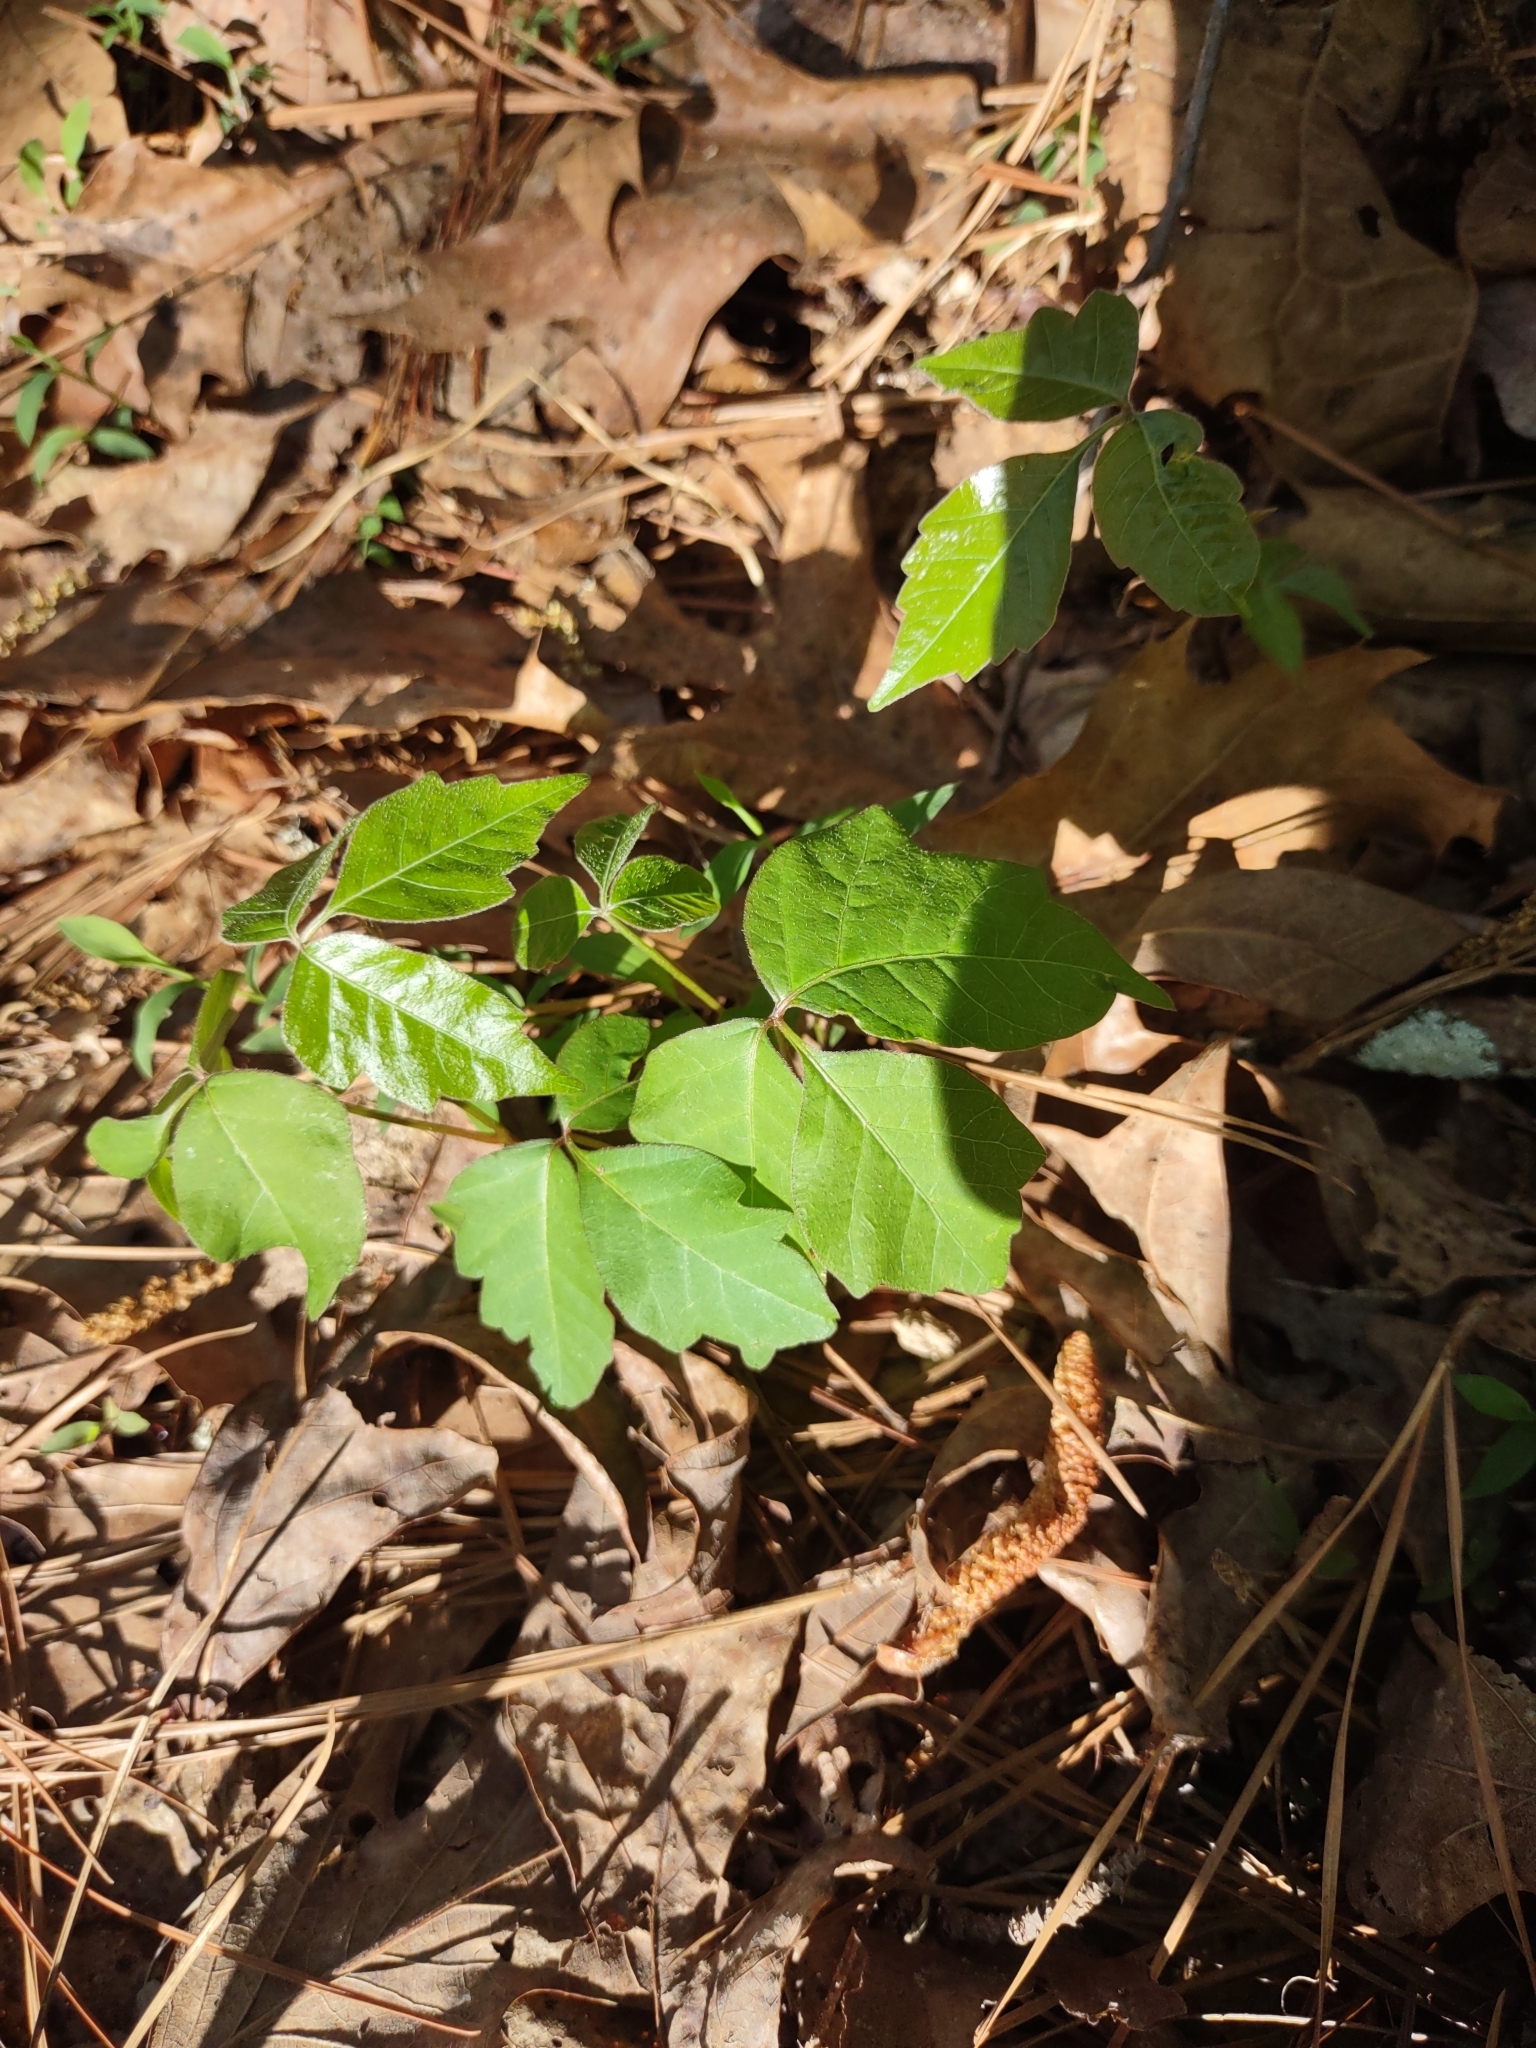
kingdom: Plantae
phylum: Tracheophyta
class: Magnoliopsida
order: Sapindales
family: Anacardiaceae
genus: Toxicodendron
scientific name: Toxicodendron radicans
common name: Poison ivy
